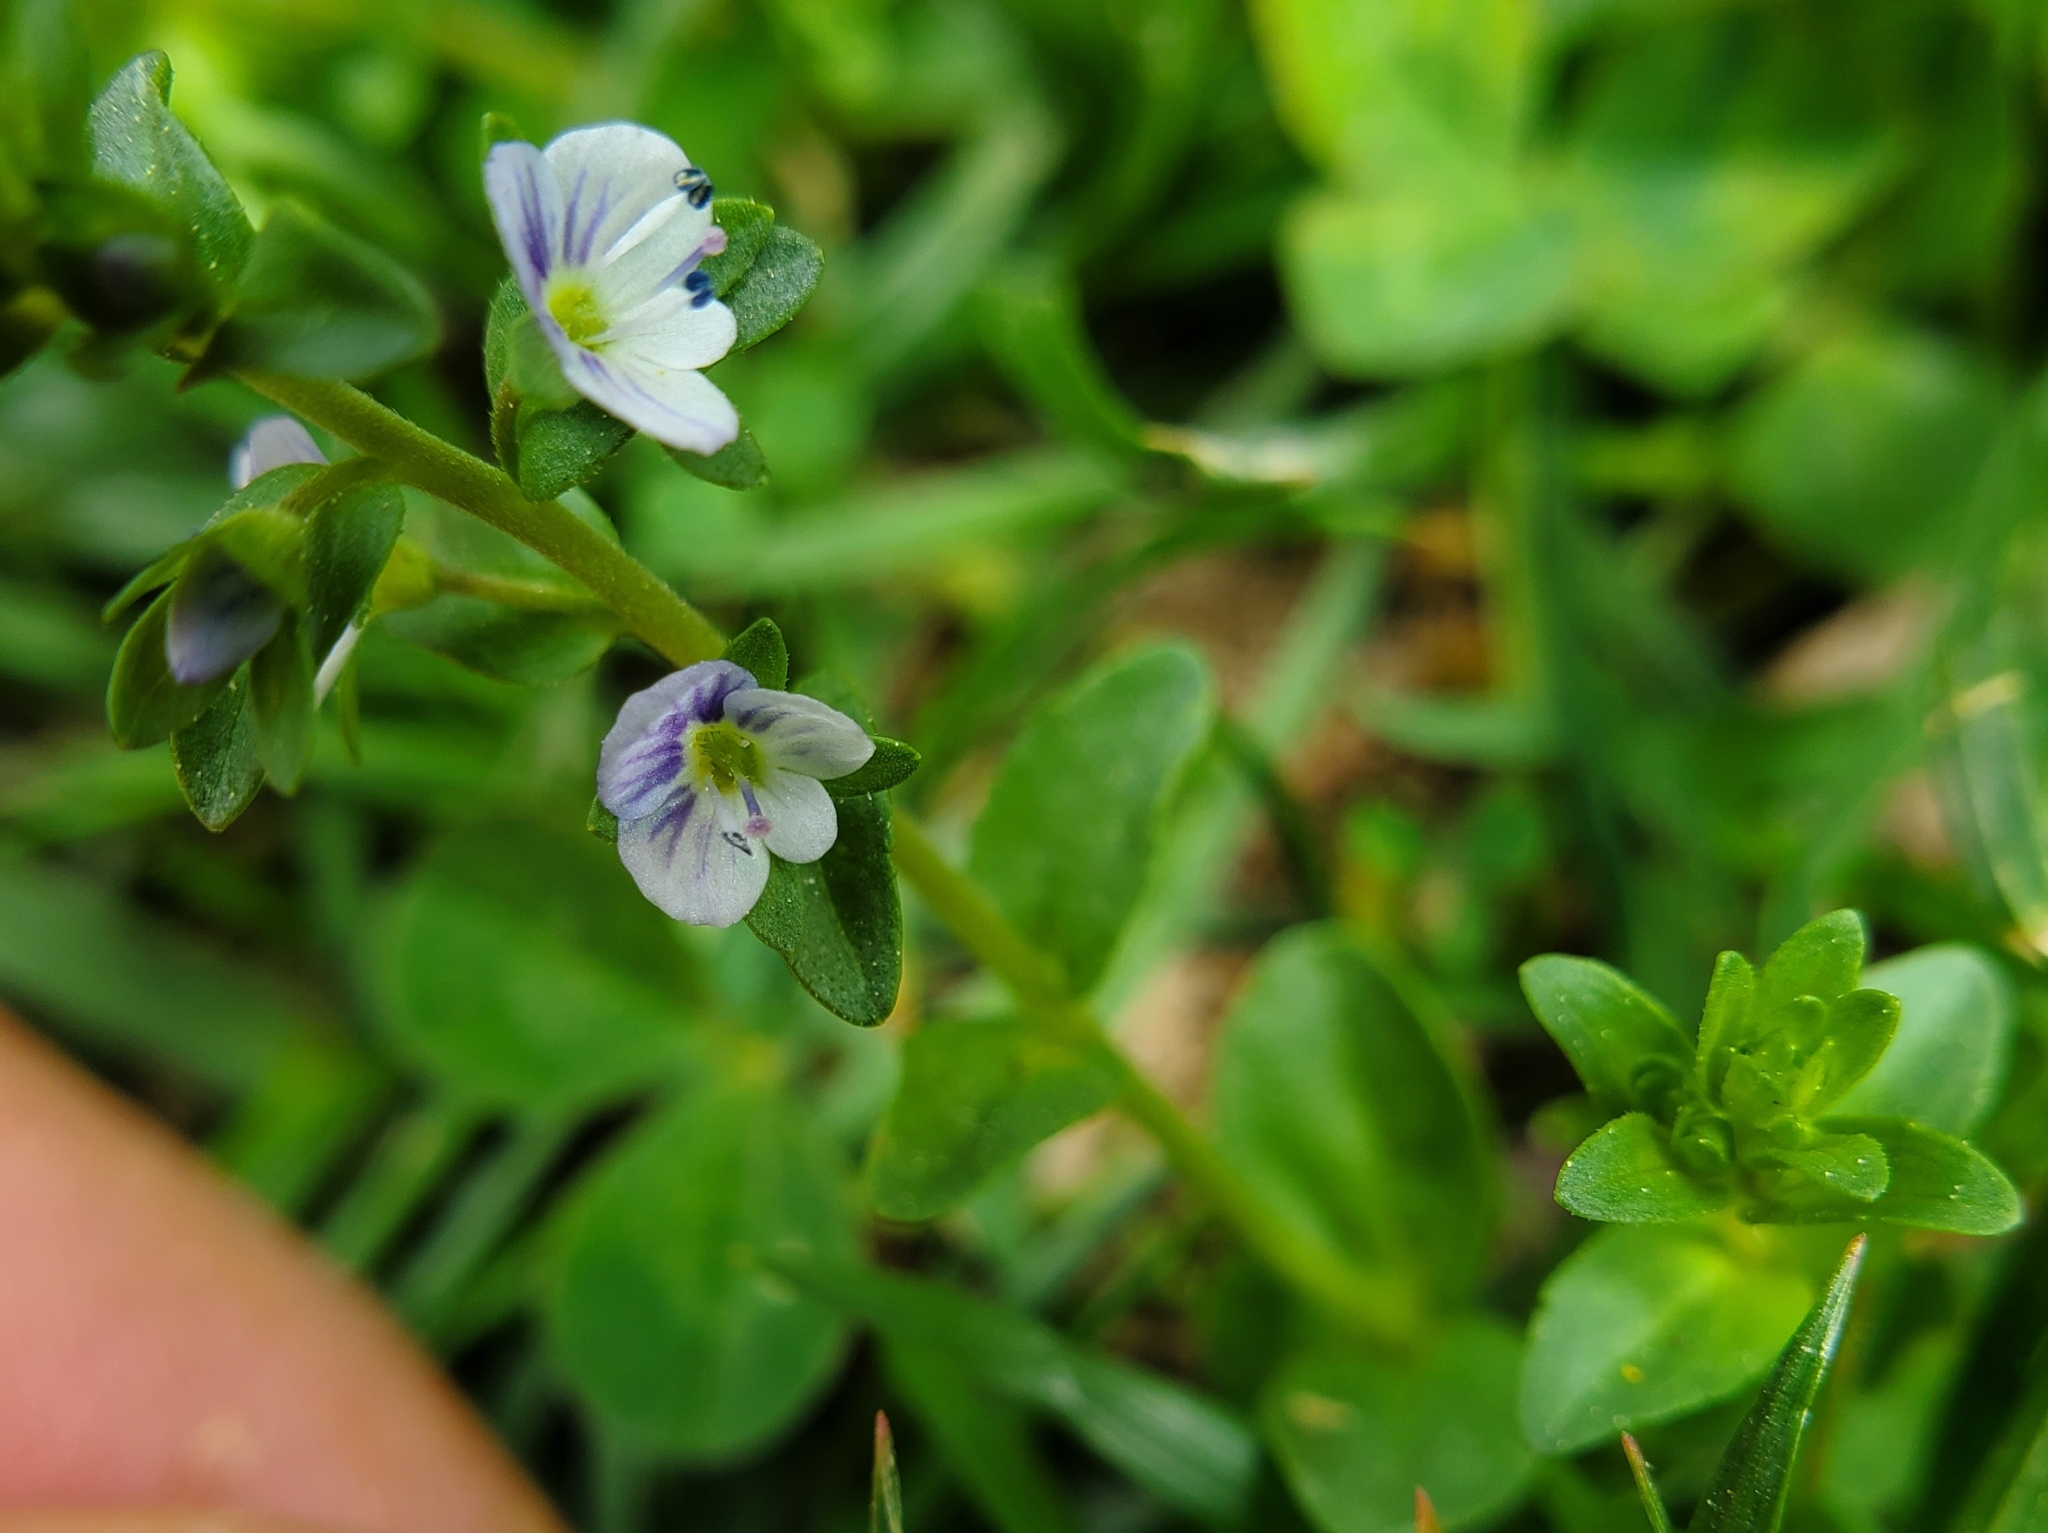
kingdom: Plantae
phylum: Tracheophyta
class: Magnoliopsida
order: Lamiales
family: Plantaginaceae
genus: Veronica
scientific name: Veronica serpyllifolia
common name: Thyme-leaved speedwell
